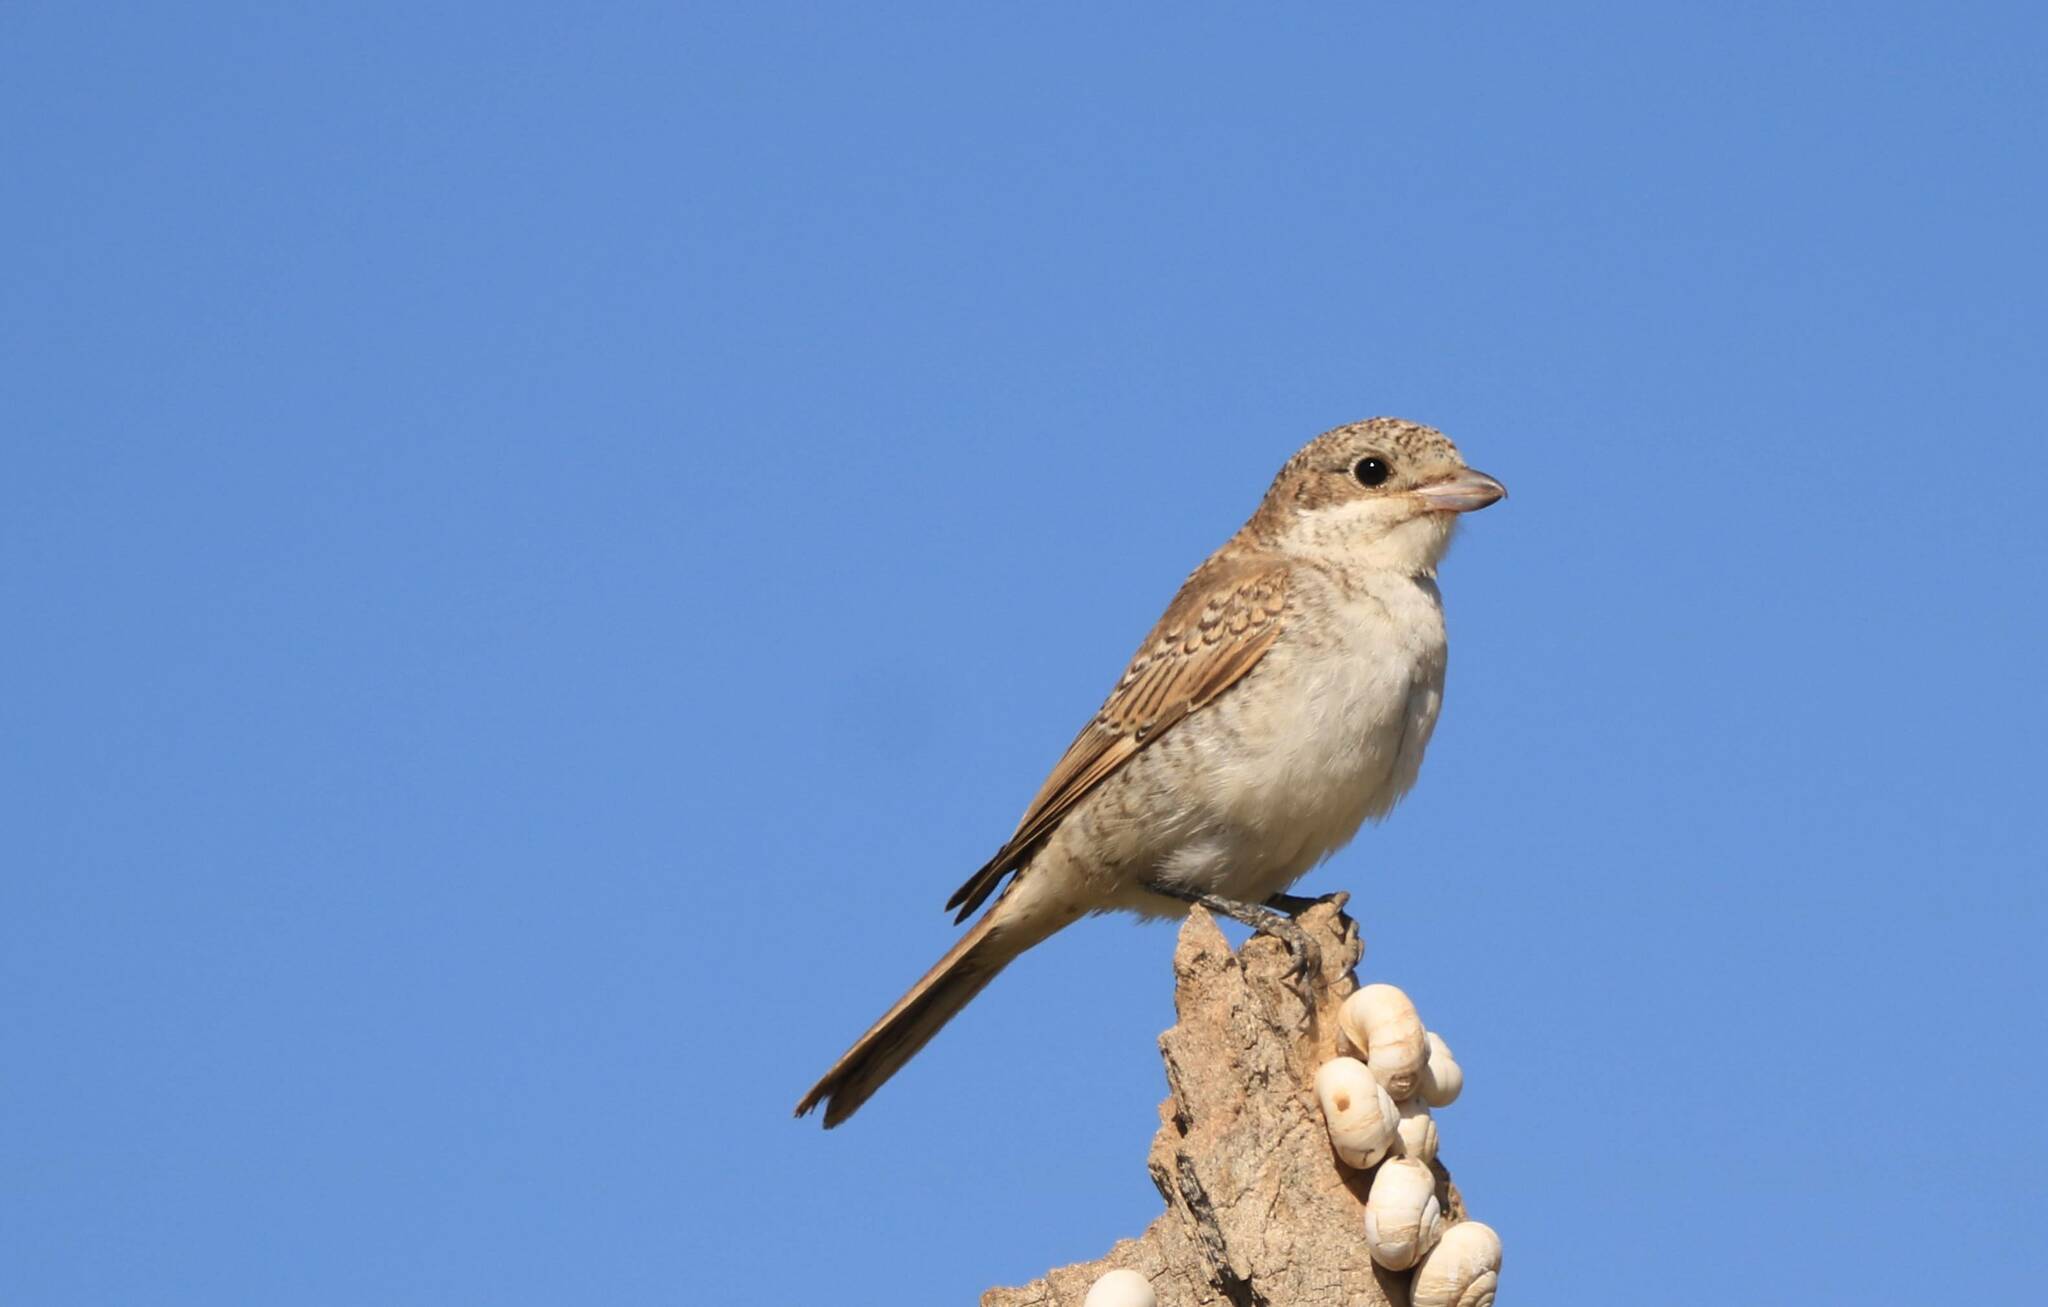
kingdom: Animalia
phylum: Chordata
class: Aves
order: Passeriformes
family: Laniidae
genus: Lanius
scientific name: Lanius senator
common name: Woodchat shrike
